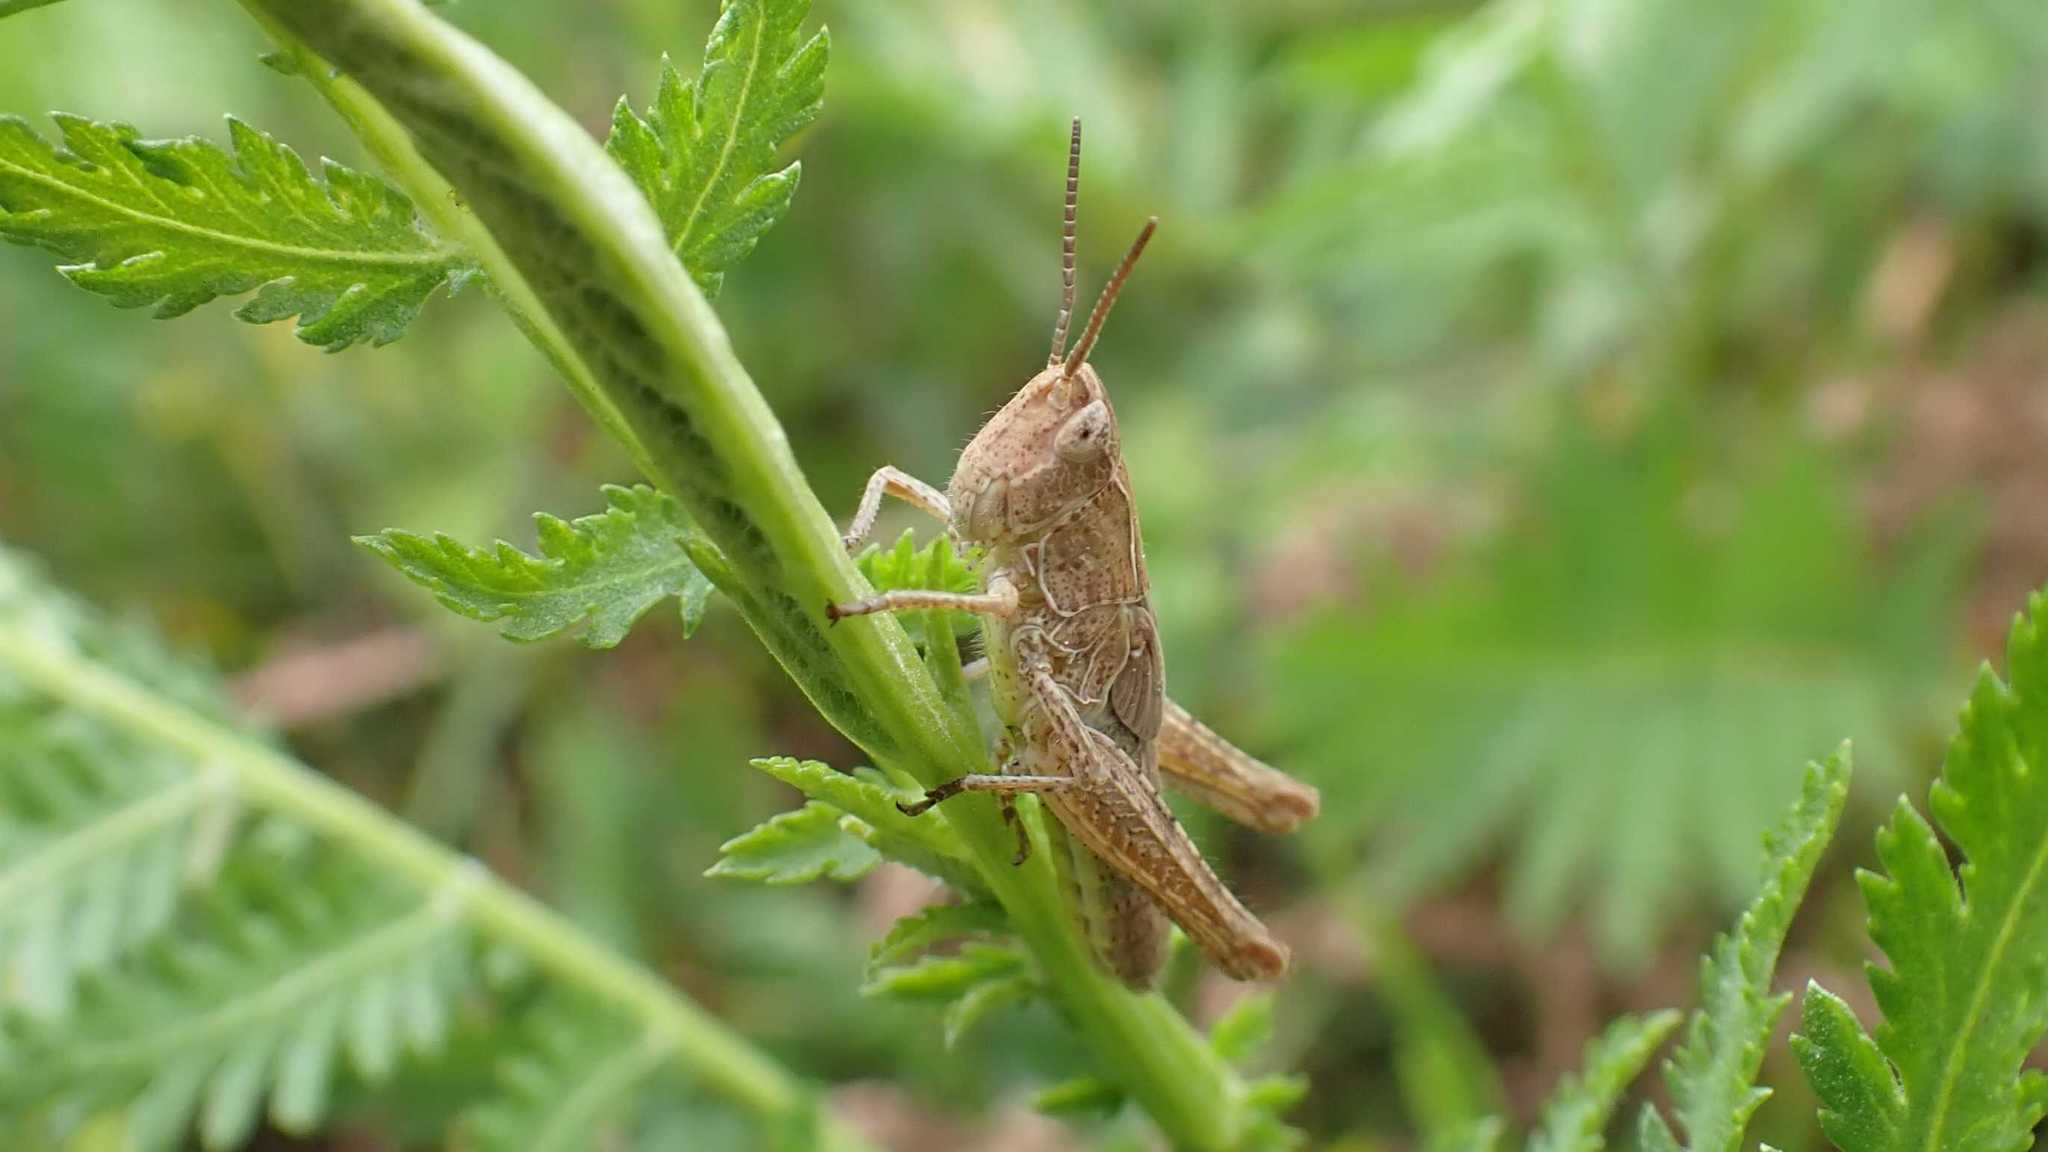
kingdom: Animalia
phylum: Arthropoda
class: Insecta
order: Orthoptera
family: Acrididae
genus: Chorthippus
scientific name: Chorthippus
